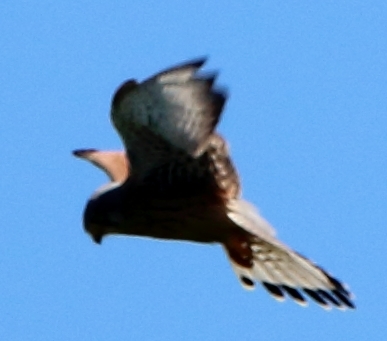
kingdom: Animalia
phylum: Chordata
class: Aves
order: Falconiformes
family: Falconidae
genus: Falco
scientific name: Falco tinnunculus
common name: Common kestrel
